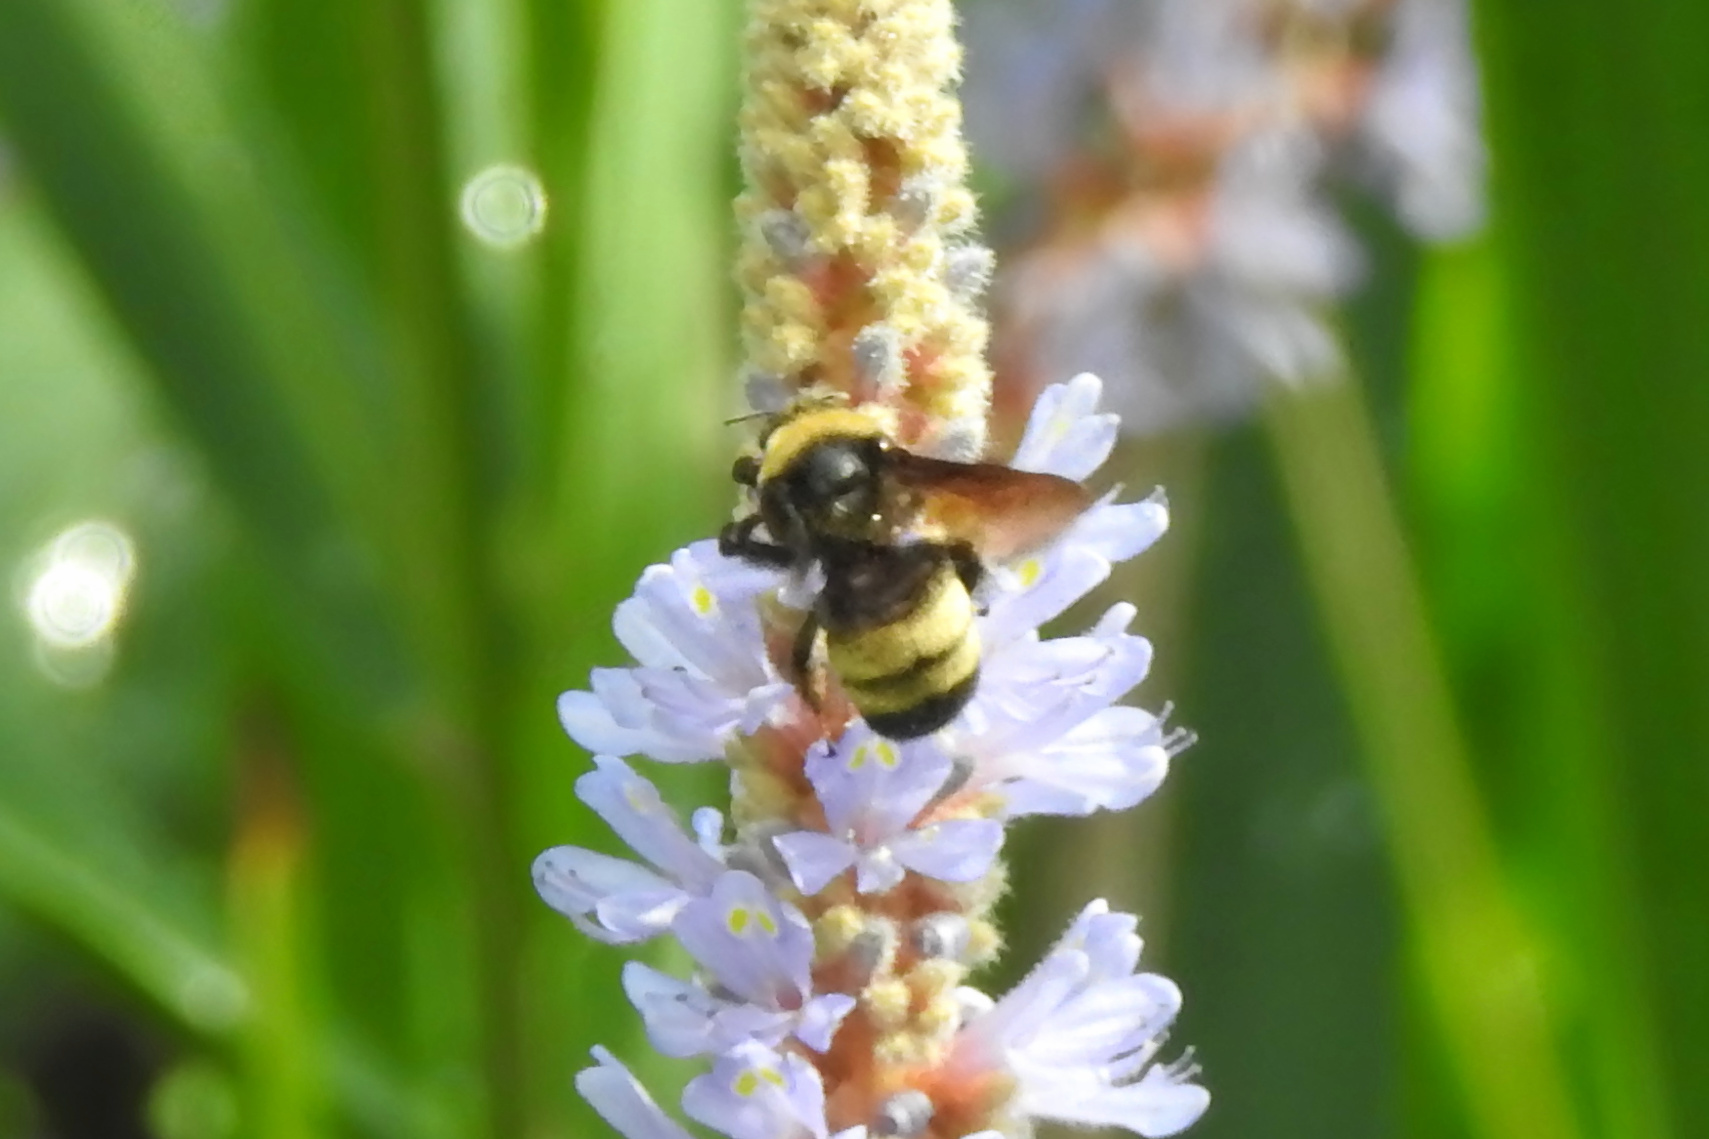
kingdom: Animalia
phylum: Arthropoda
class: Insecta
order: Hymenoptera
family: Apidae
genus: Bombus
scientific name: Bombus auricomus
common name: Black and gold bumble bee
